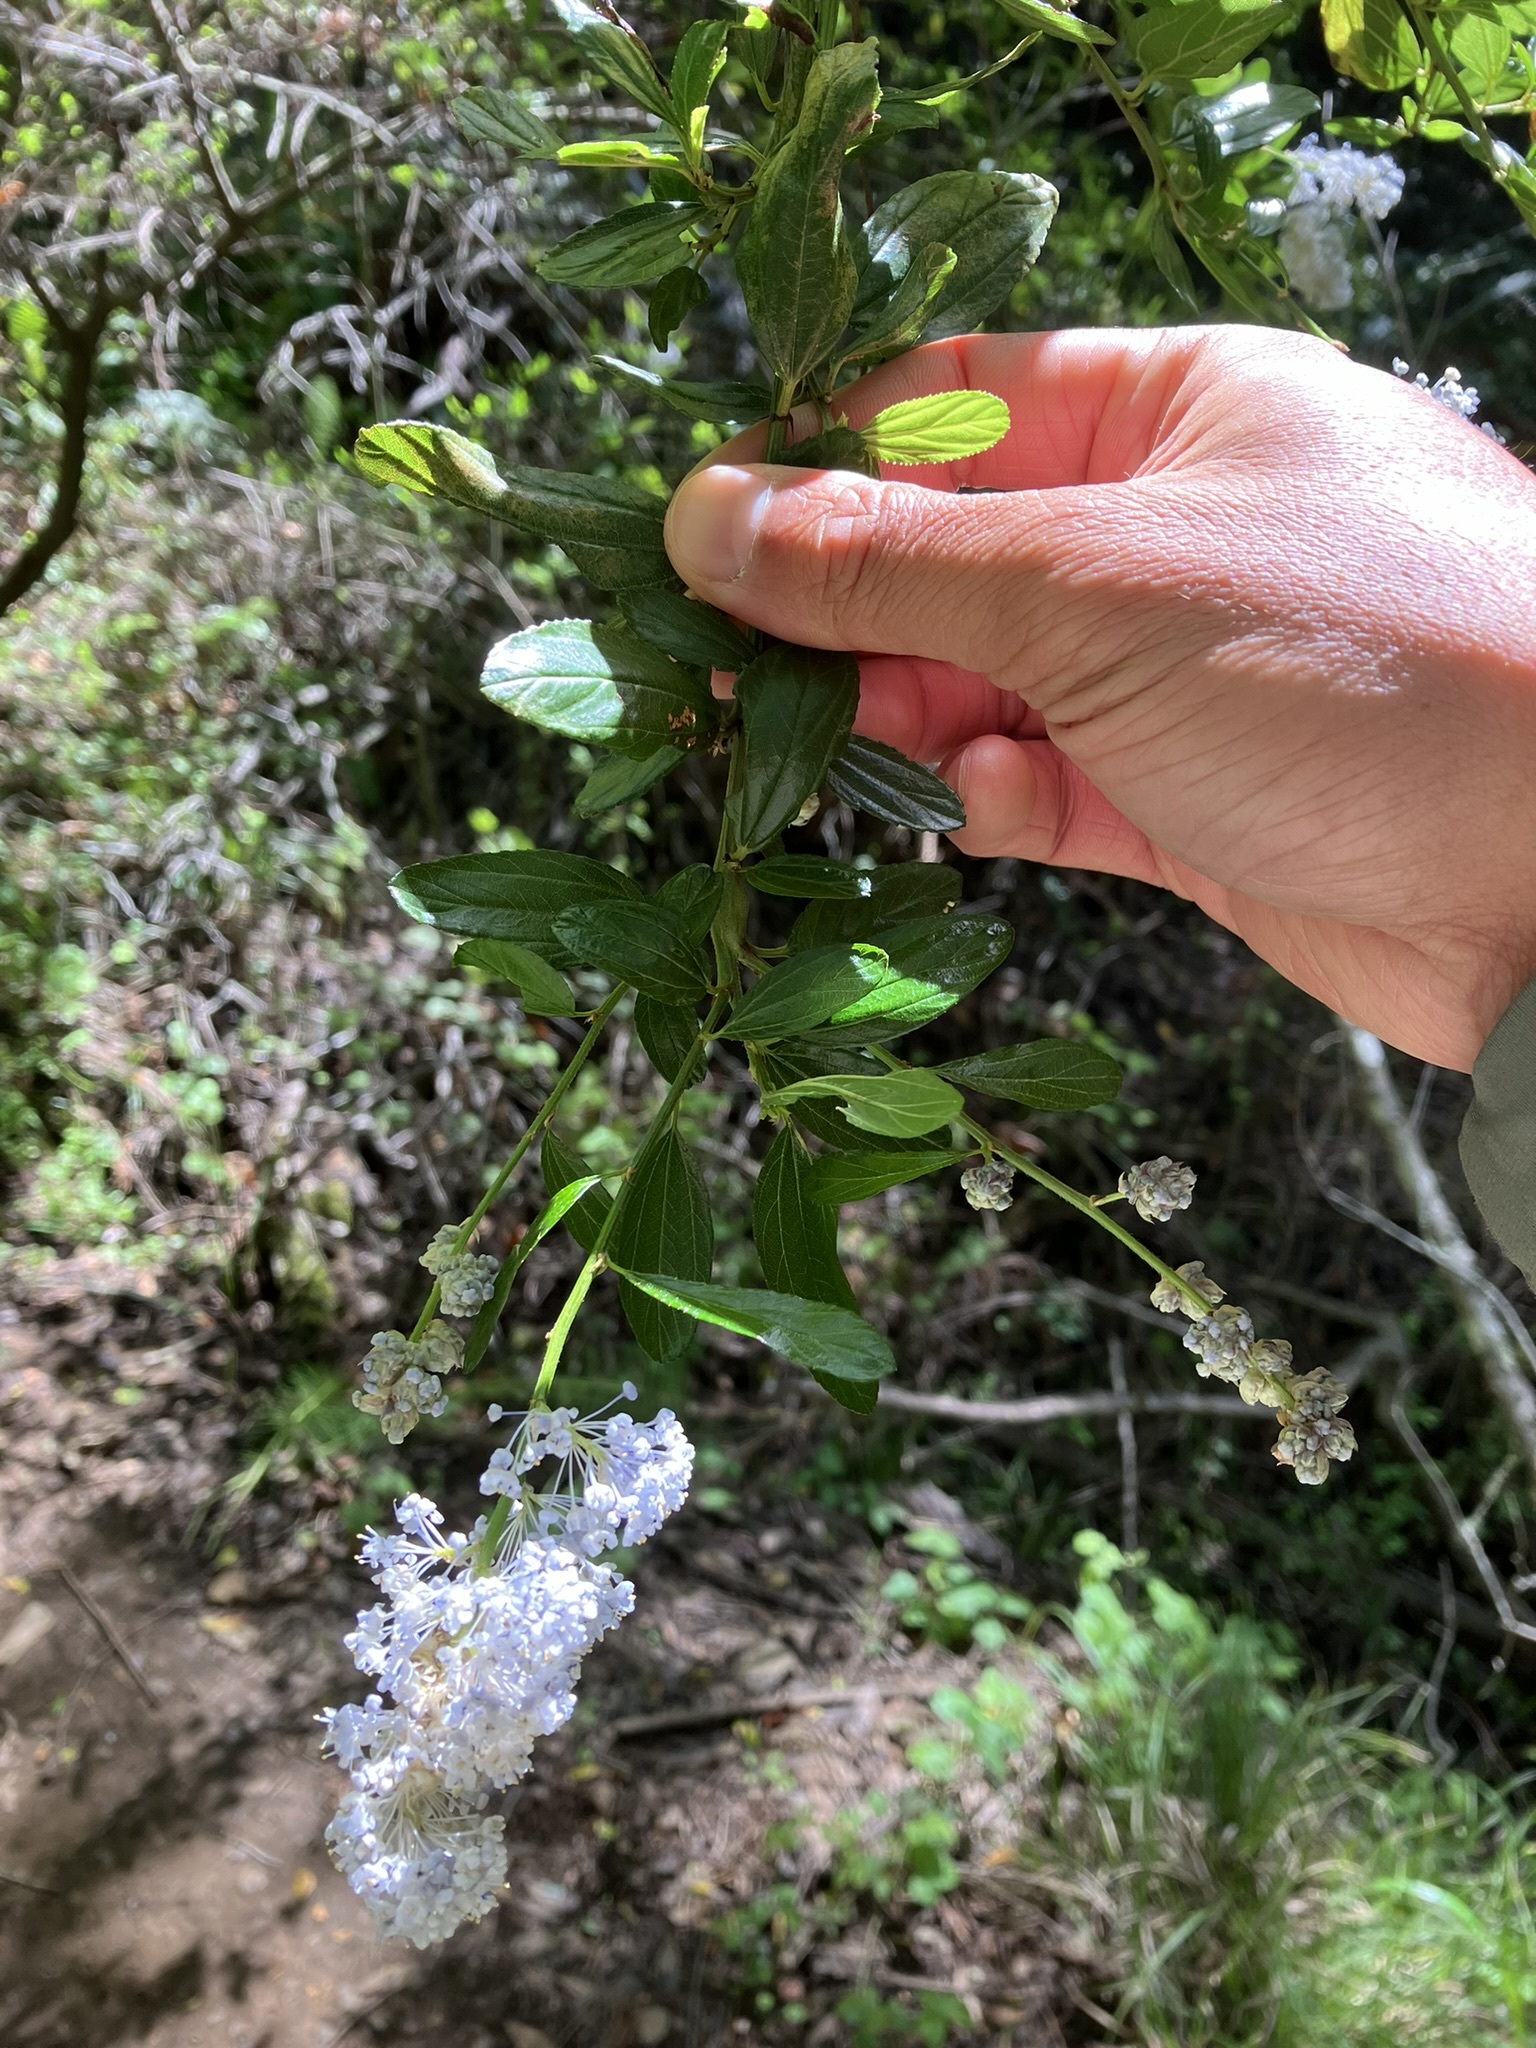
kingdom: Plantae
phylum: Tracheophyta
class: Magnoliopsida
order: Rosales
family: Rhamnaceae
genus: Ceanothus
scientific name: Ceanothus thyrsiflorus
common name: California-lilac
